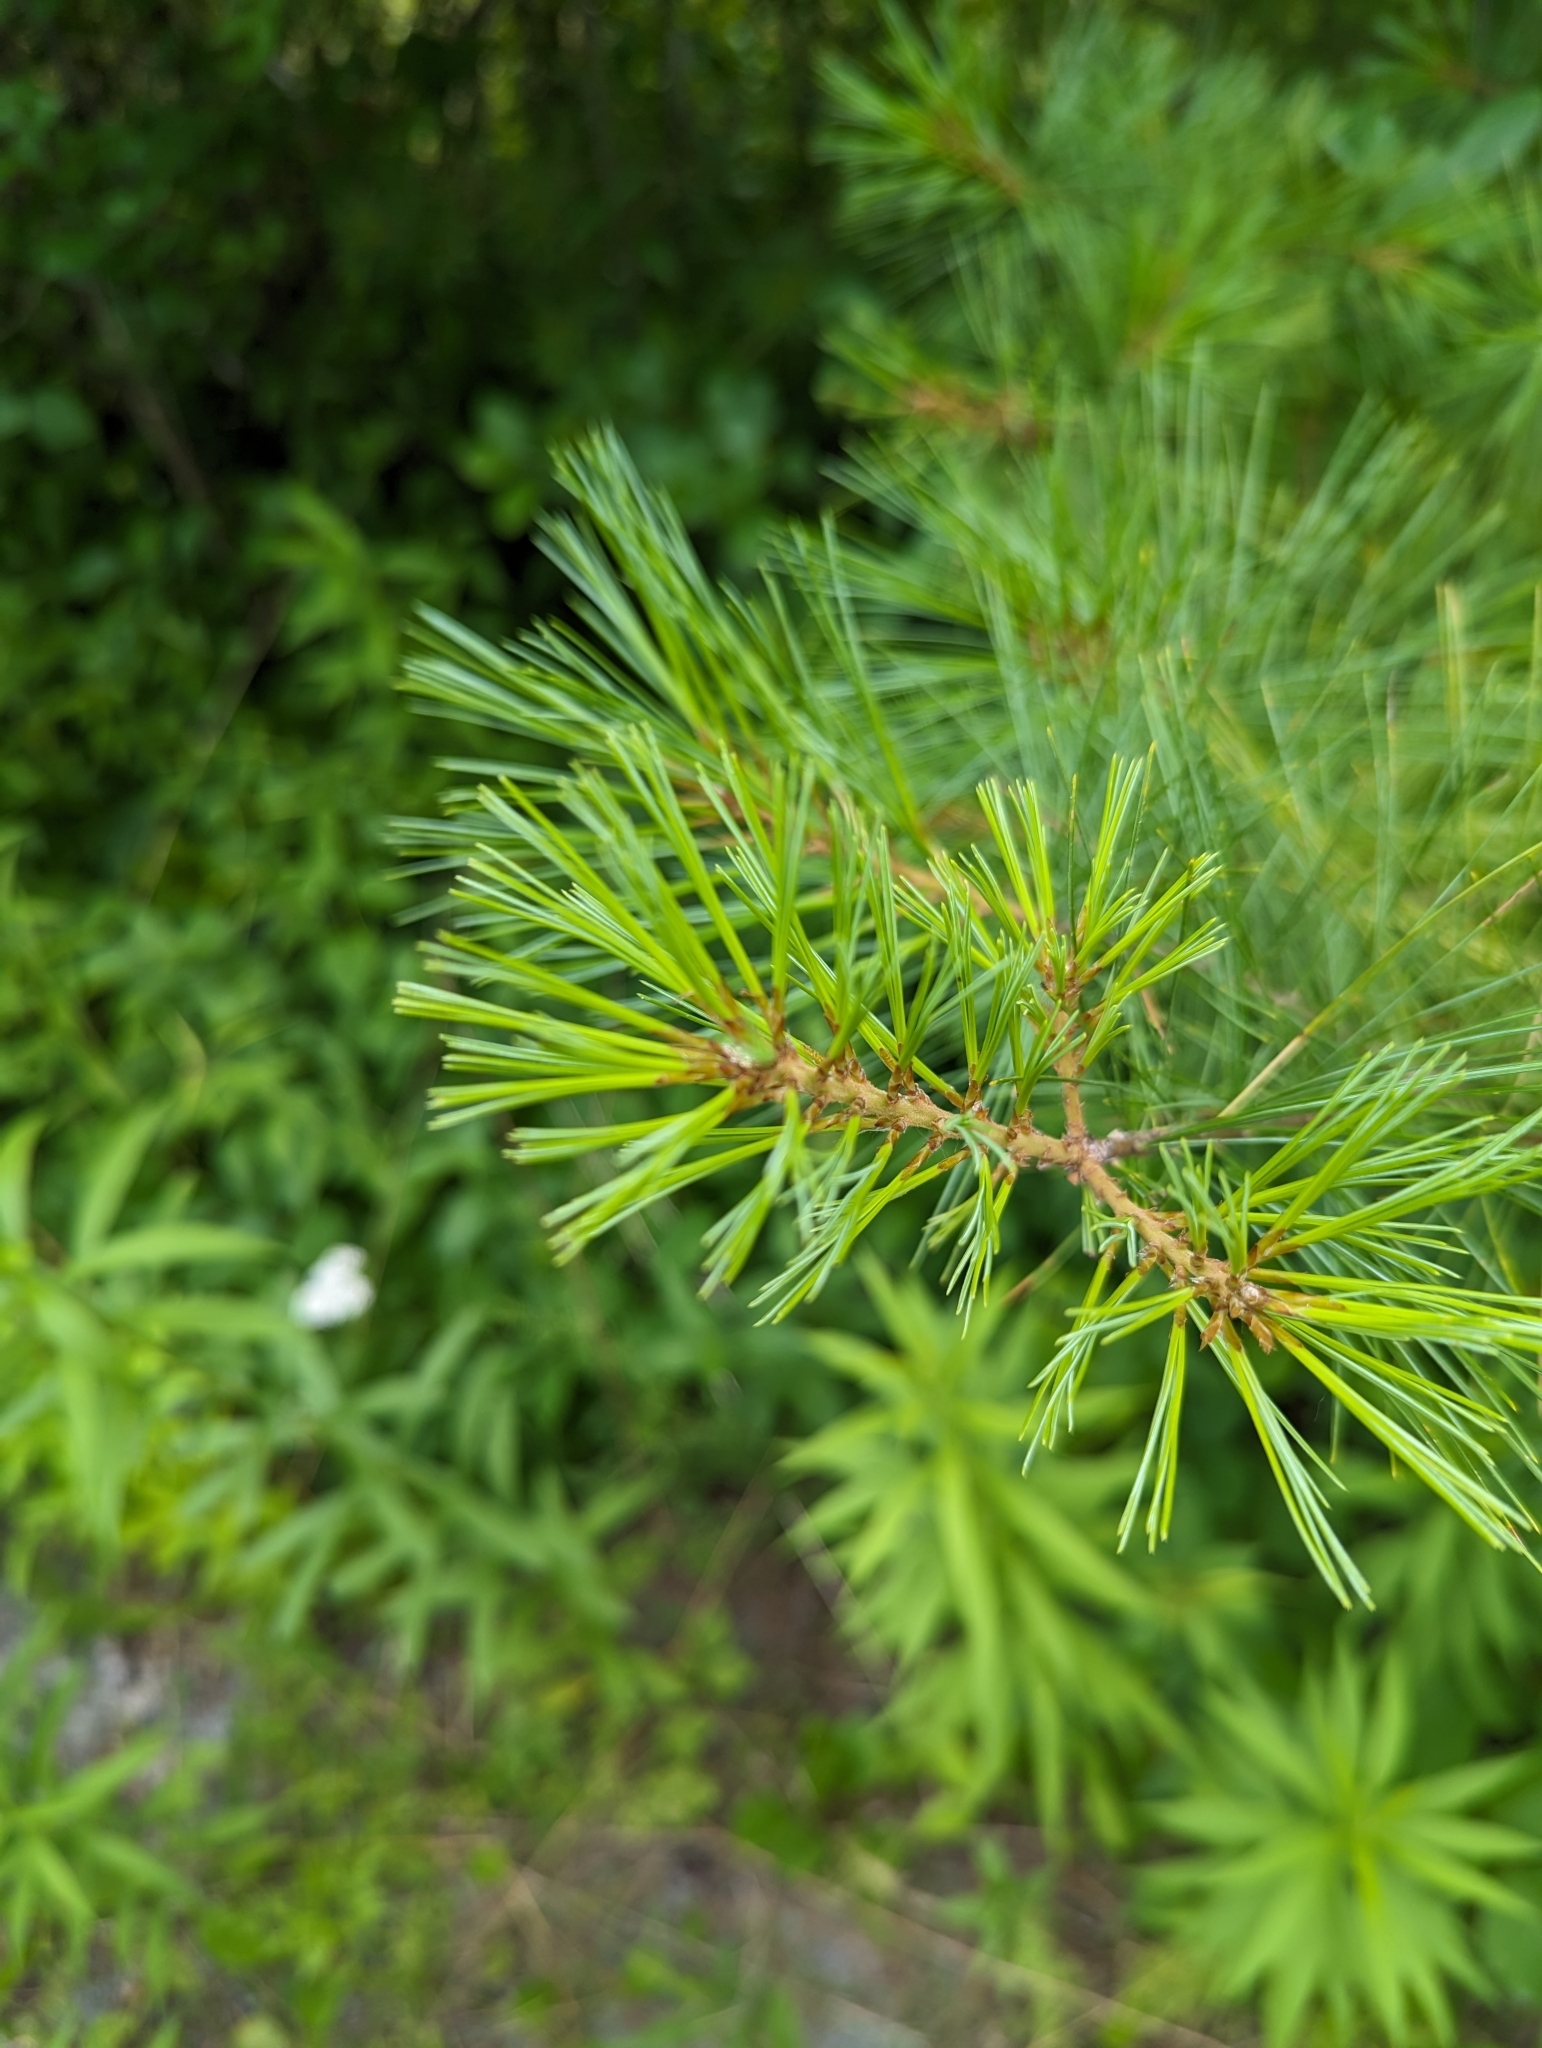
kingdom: Plantae
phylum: Tracheophyta
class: Pinopsida
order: Pinales
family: Pinaceae
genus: Pinus
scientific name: Pinus strobus
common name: Weymouth pine
